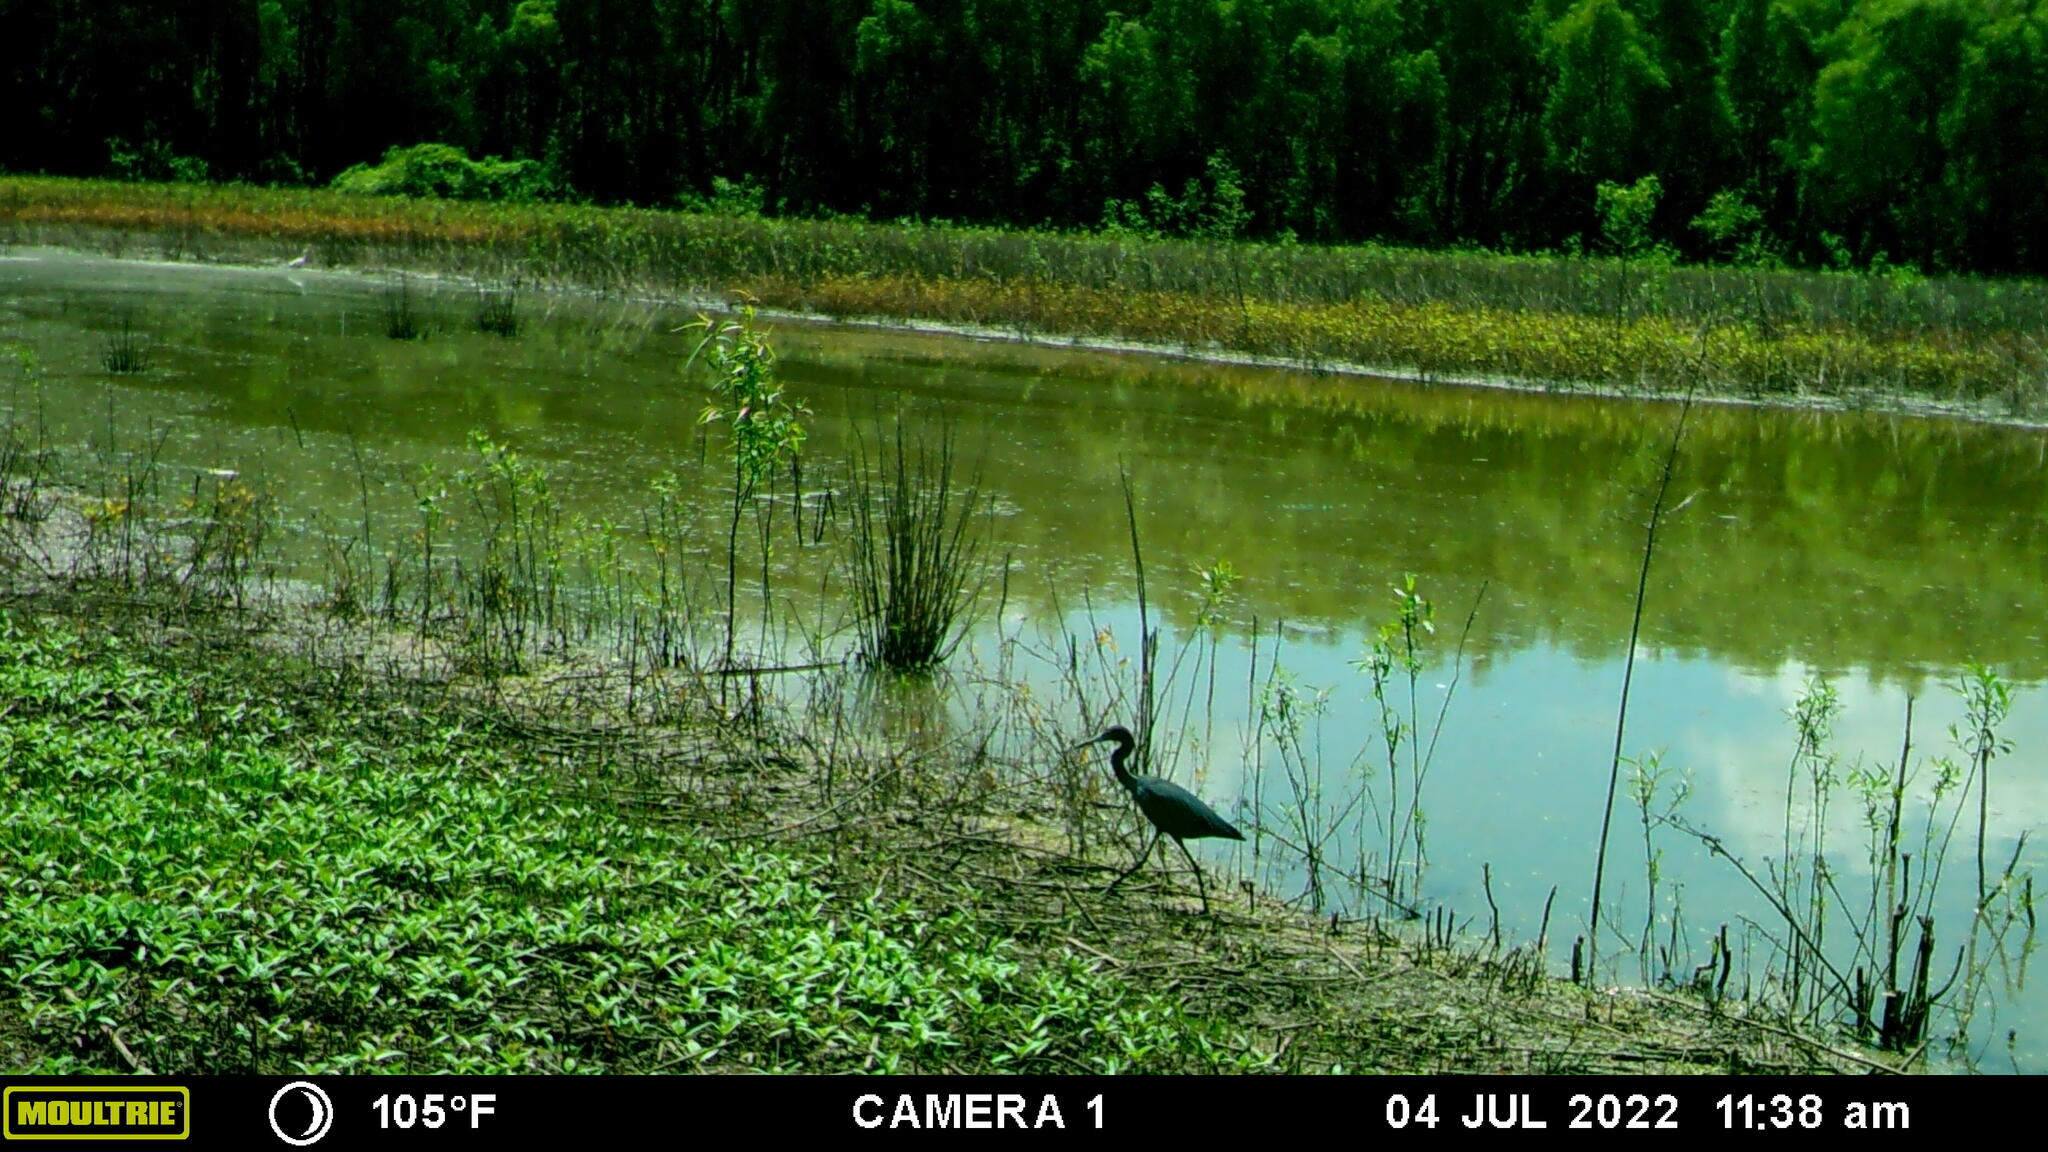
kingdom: Animalia
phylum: Chordata
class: Aves
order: Pelecaniformes
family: Ardeidae
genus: Egretta
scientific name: Egretta caerulea
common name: Little blue heron
